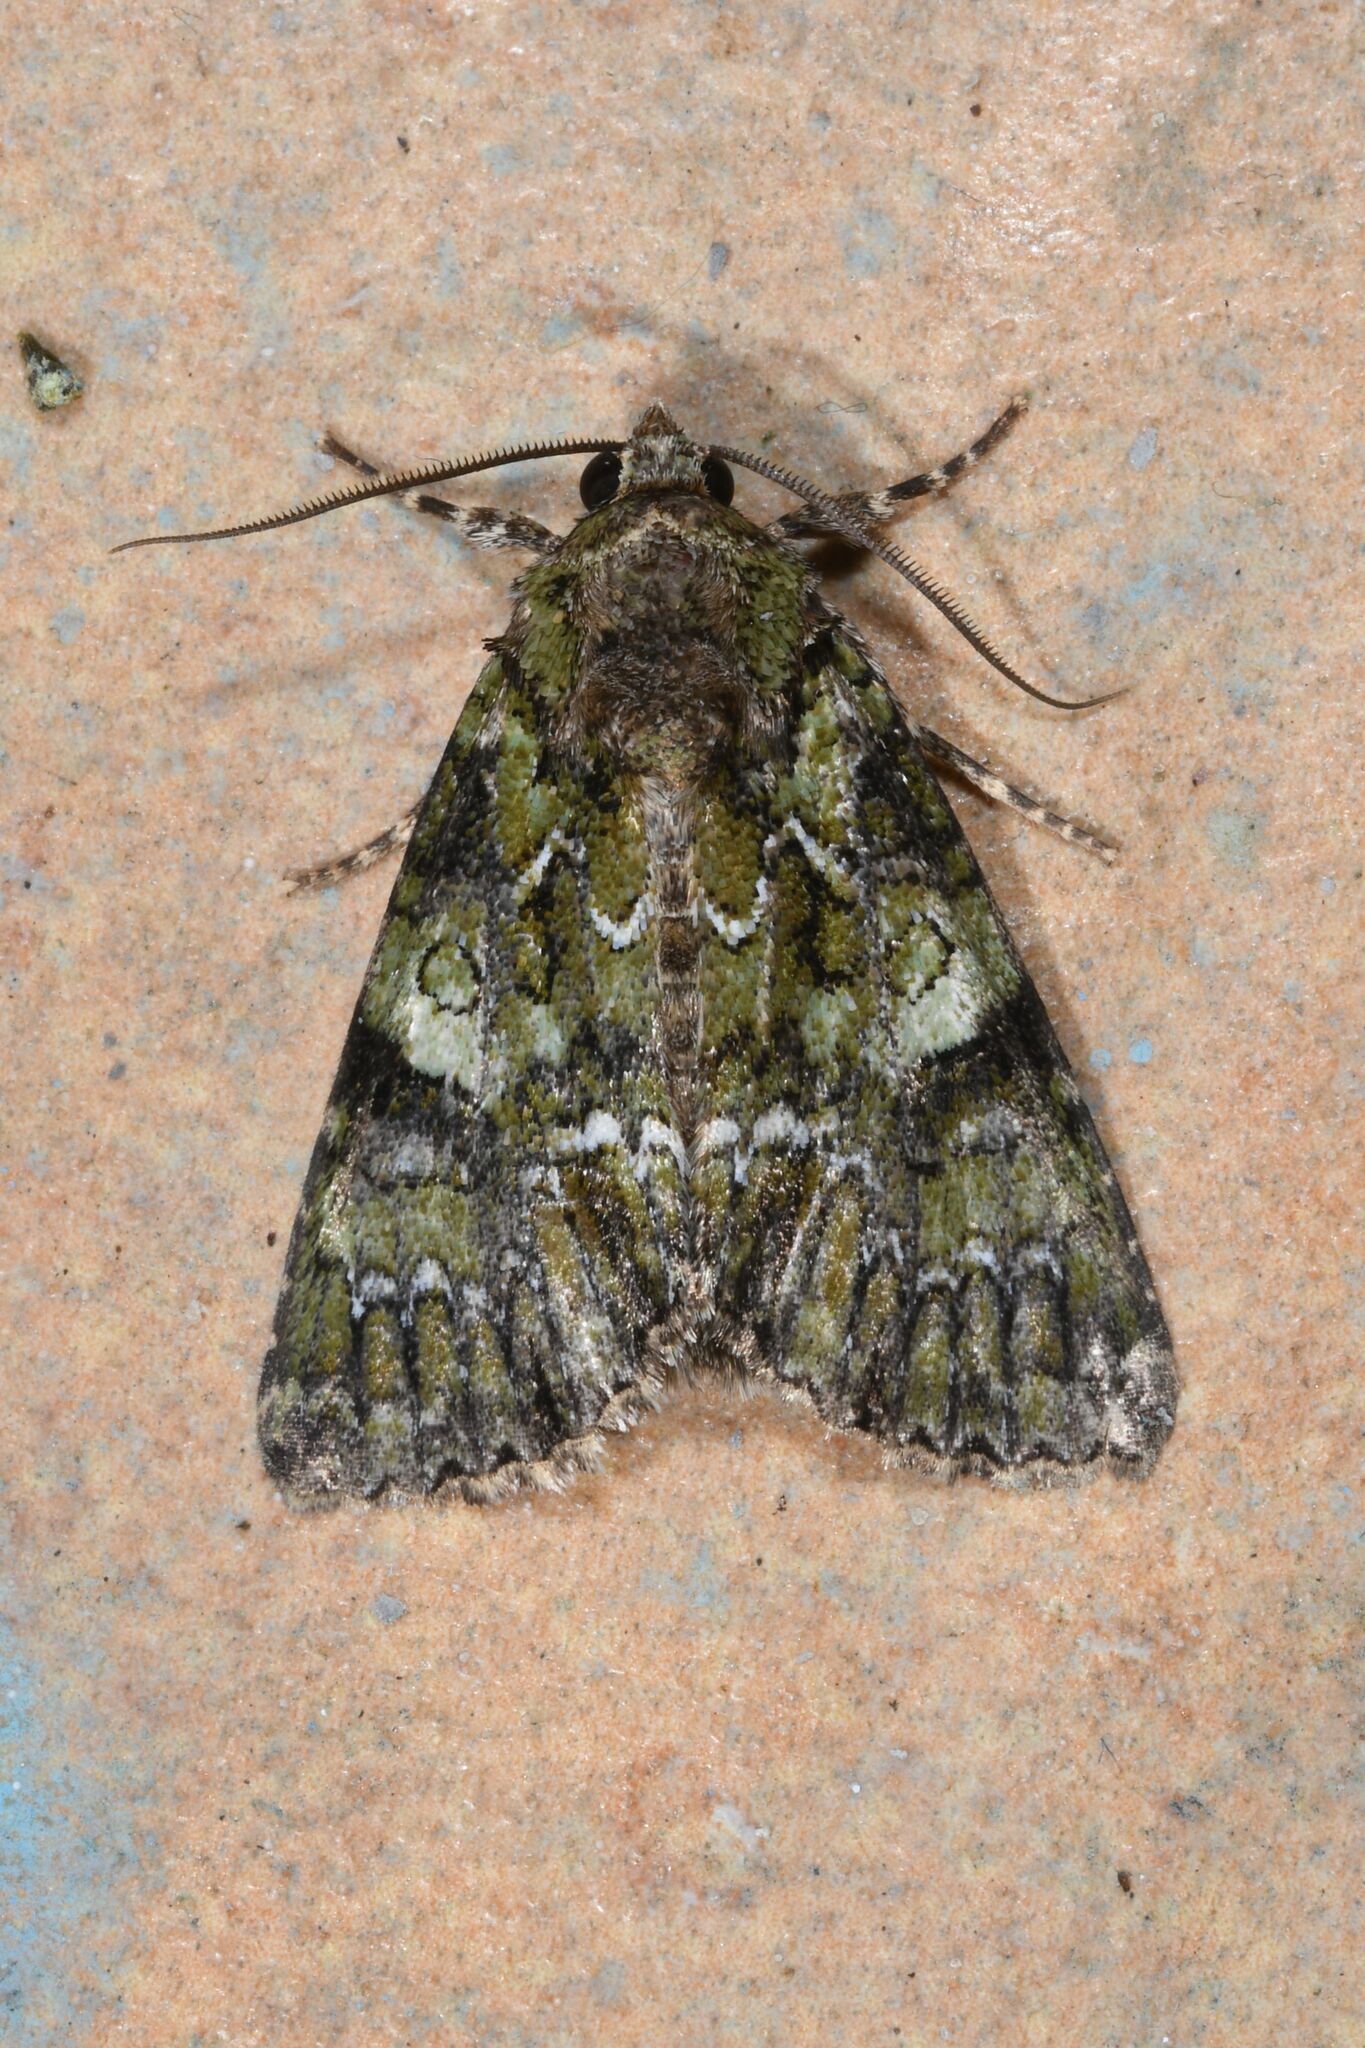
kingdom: Animalia
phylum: Arthropoda
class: Insecta
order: Lepidoptera
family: Noctuidae
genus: Polyphaenis
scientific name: Polyphaenis sericata
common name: Guernsey underwing
